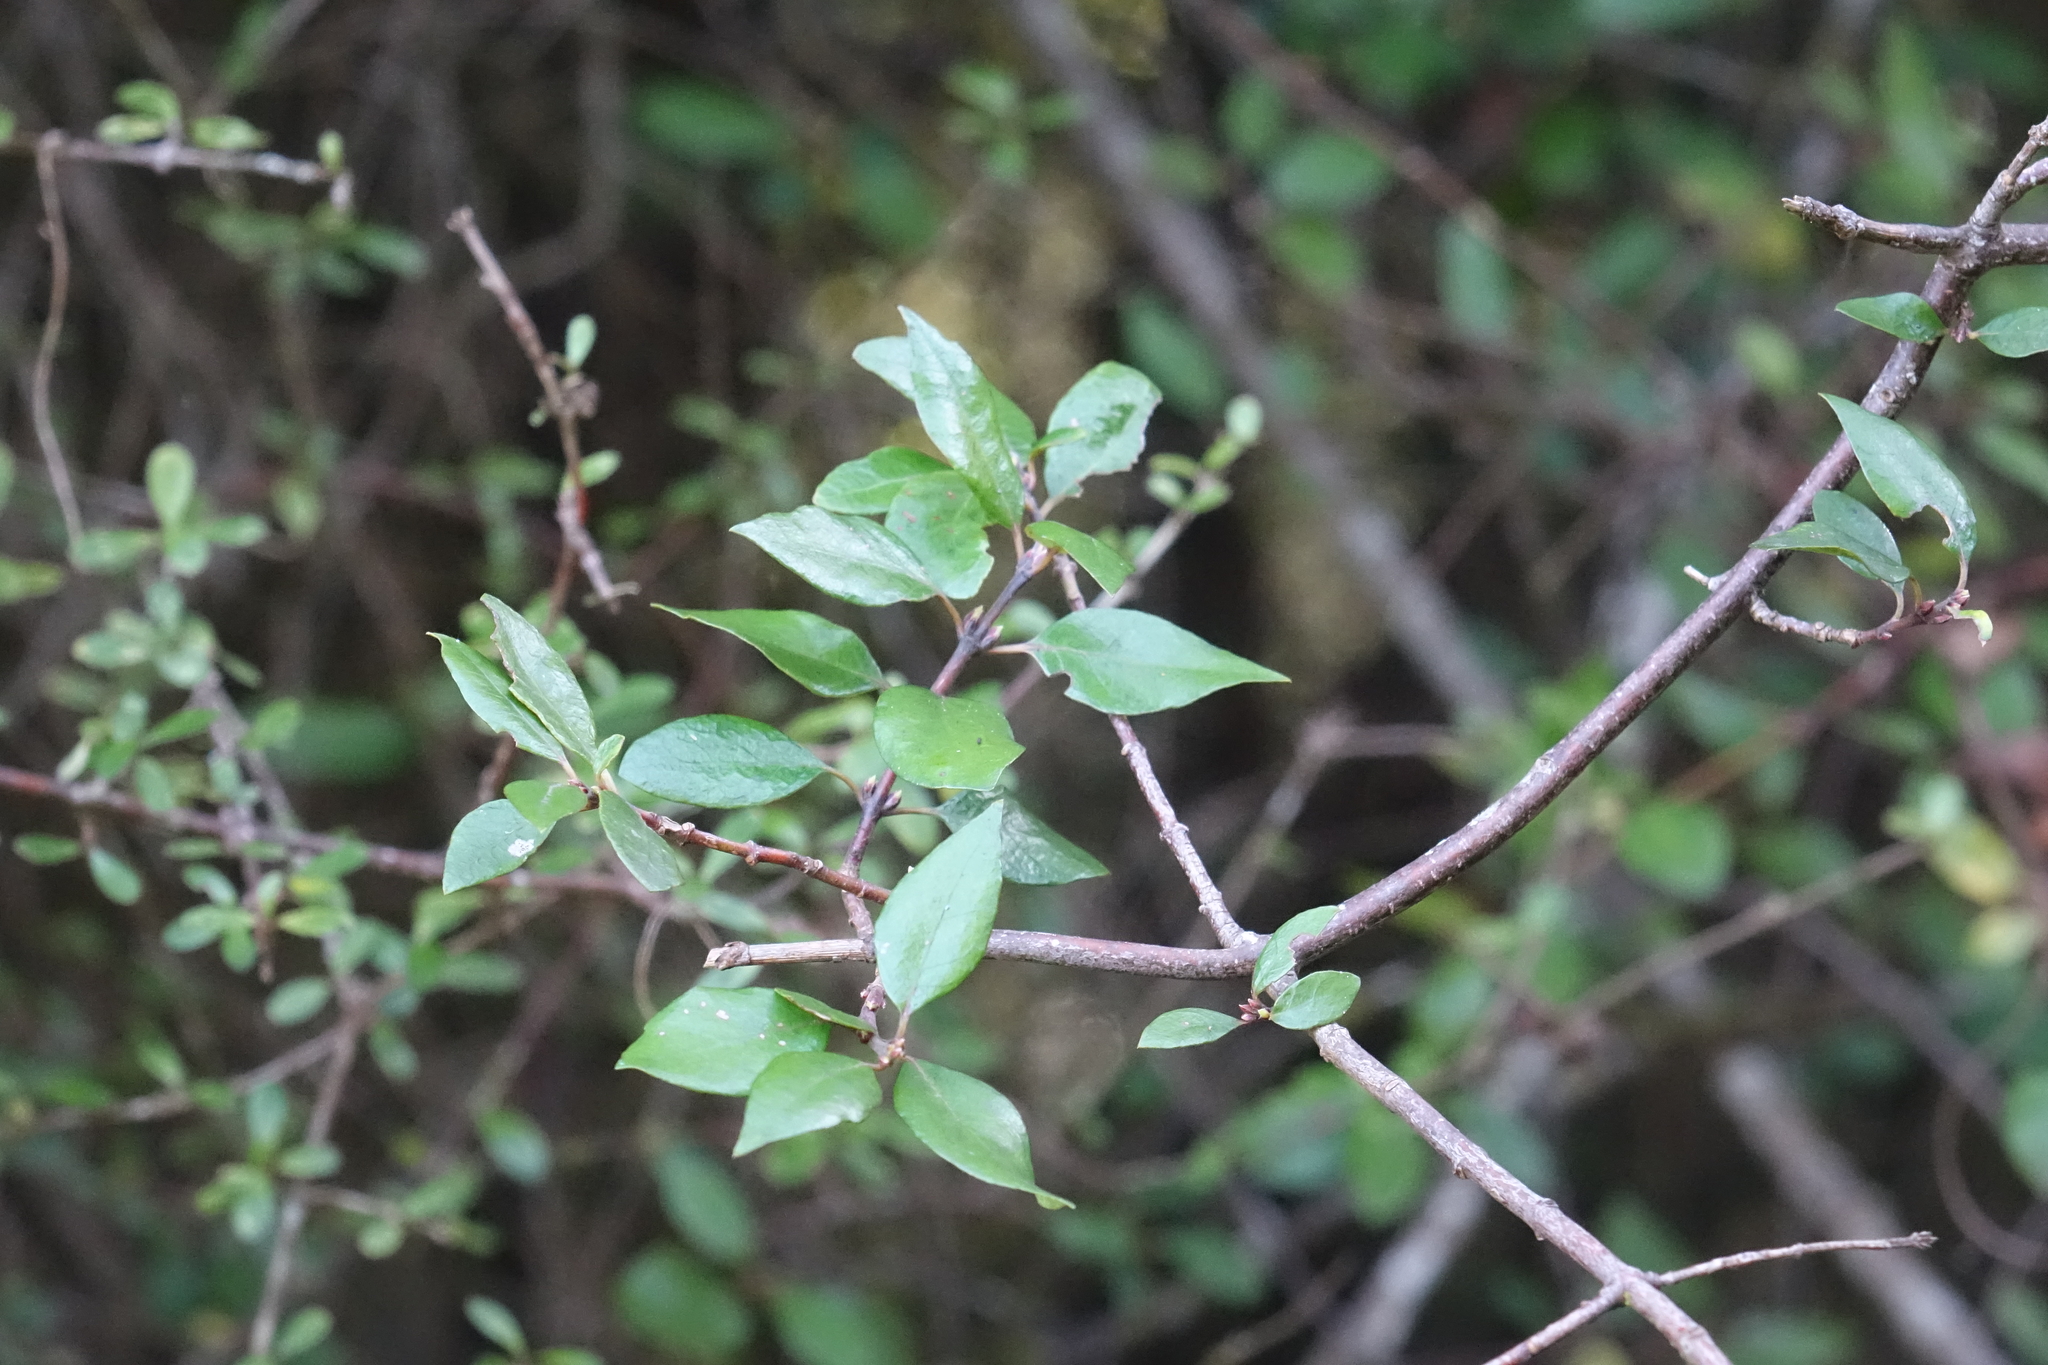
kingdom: Plantae
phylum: Tracheophyta
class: Magnoliopsida
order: Oxalidales
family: Elaeocarpaceae
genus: Aristotelia
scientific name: Aristotelia
